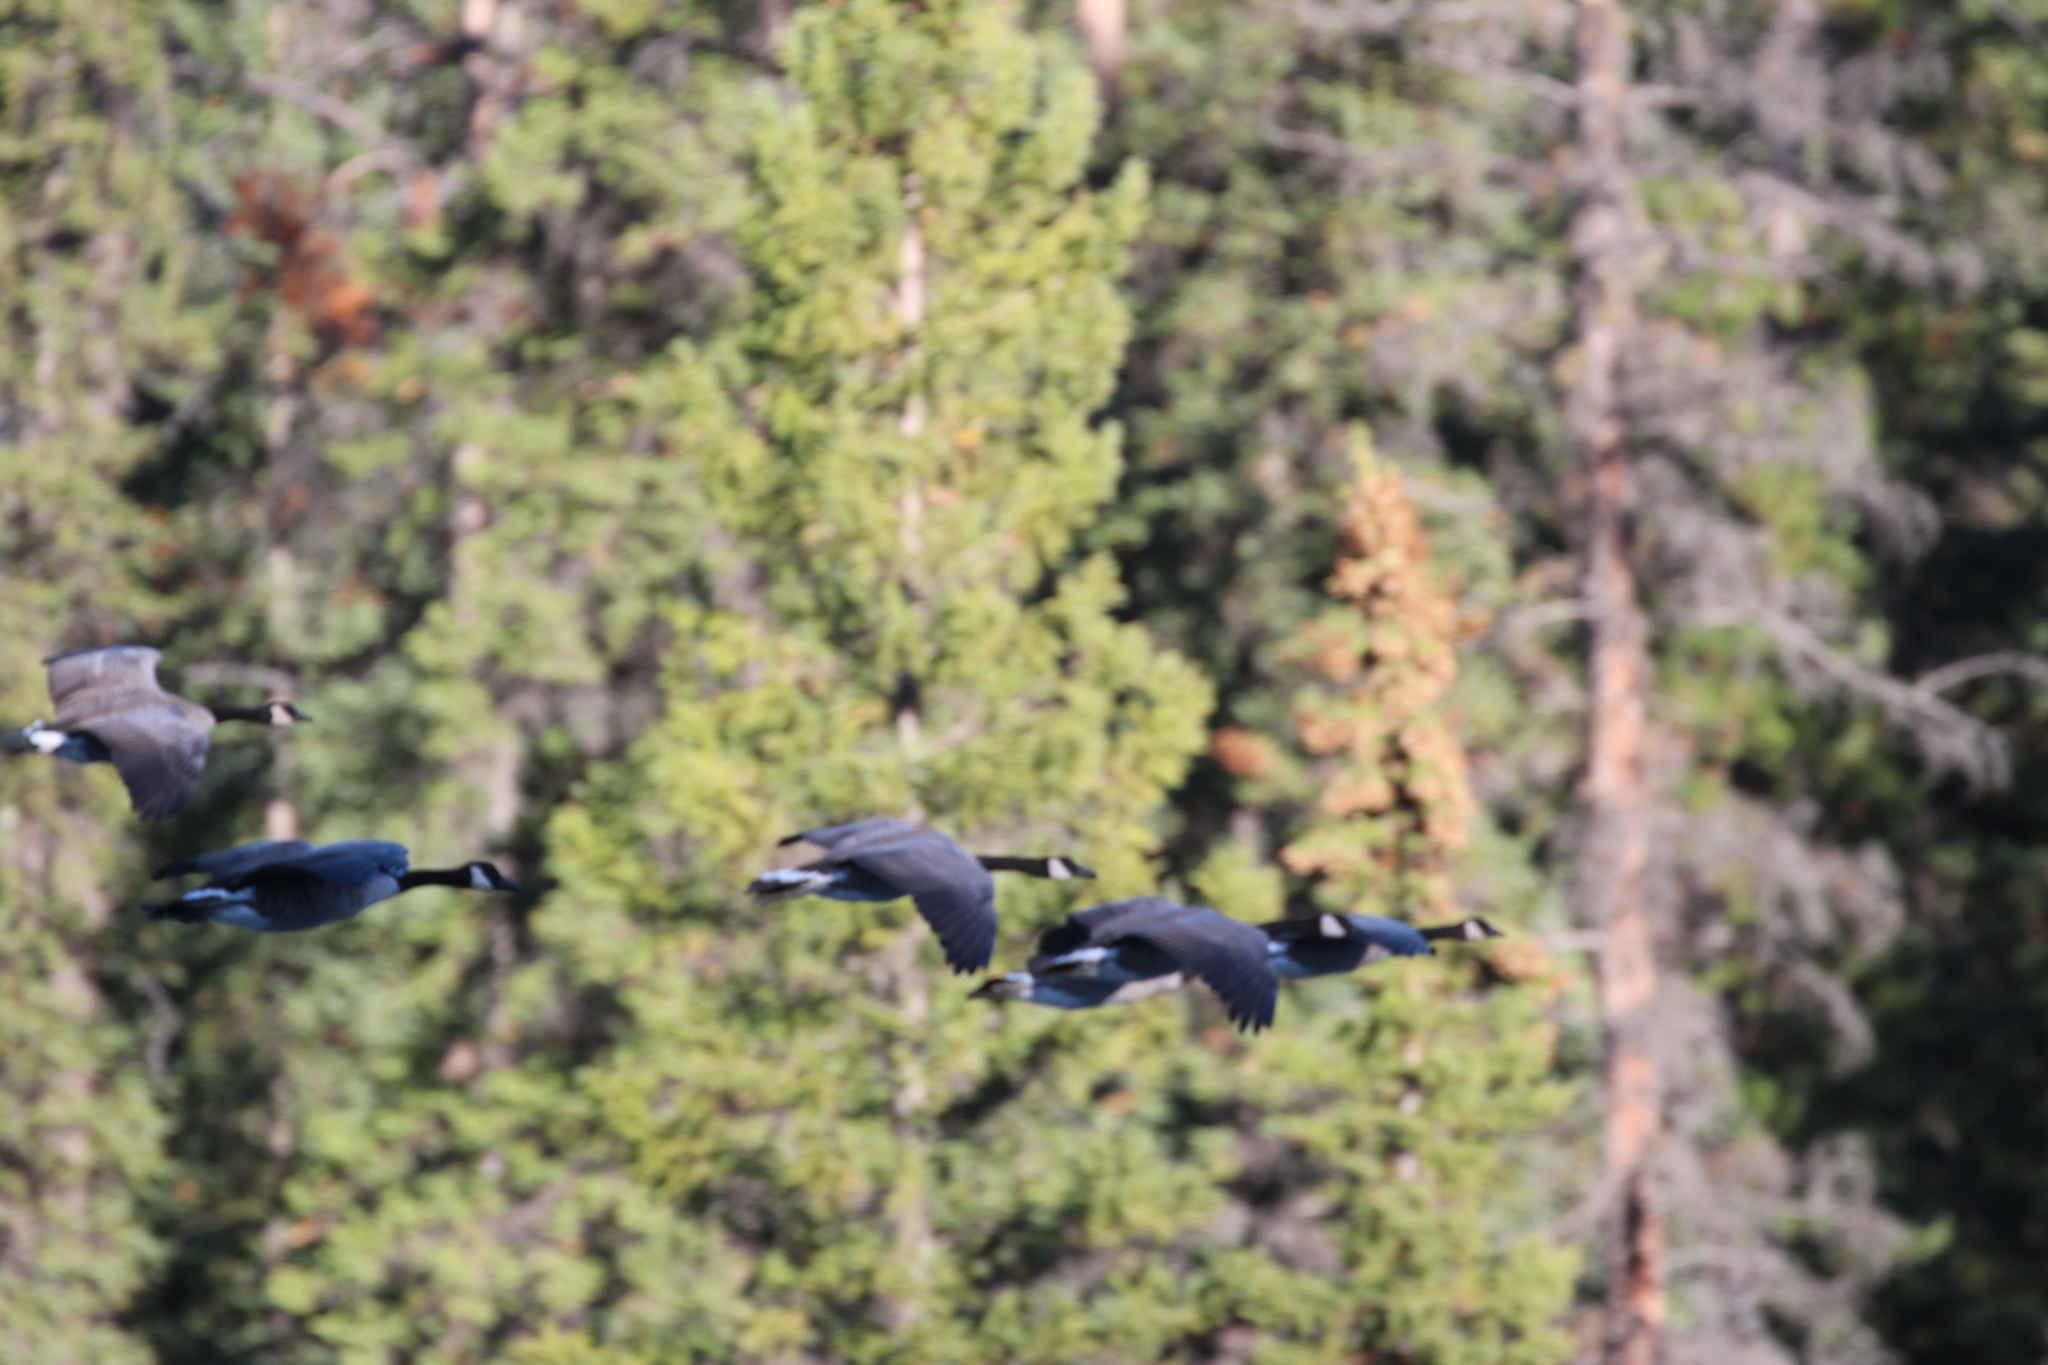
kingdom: Animalia
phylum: Chordata
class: Aves
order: Anseriformes
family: Anatidae
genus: Branta
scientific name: Branta canadensis
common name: Canada goose
